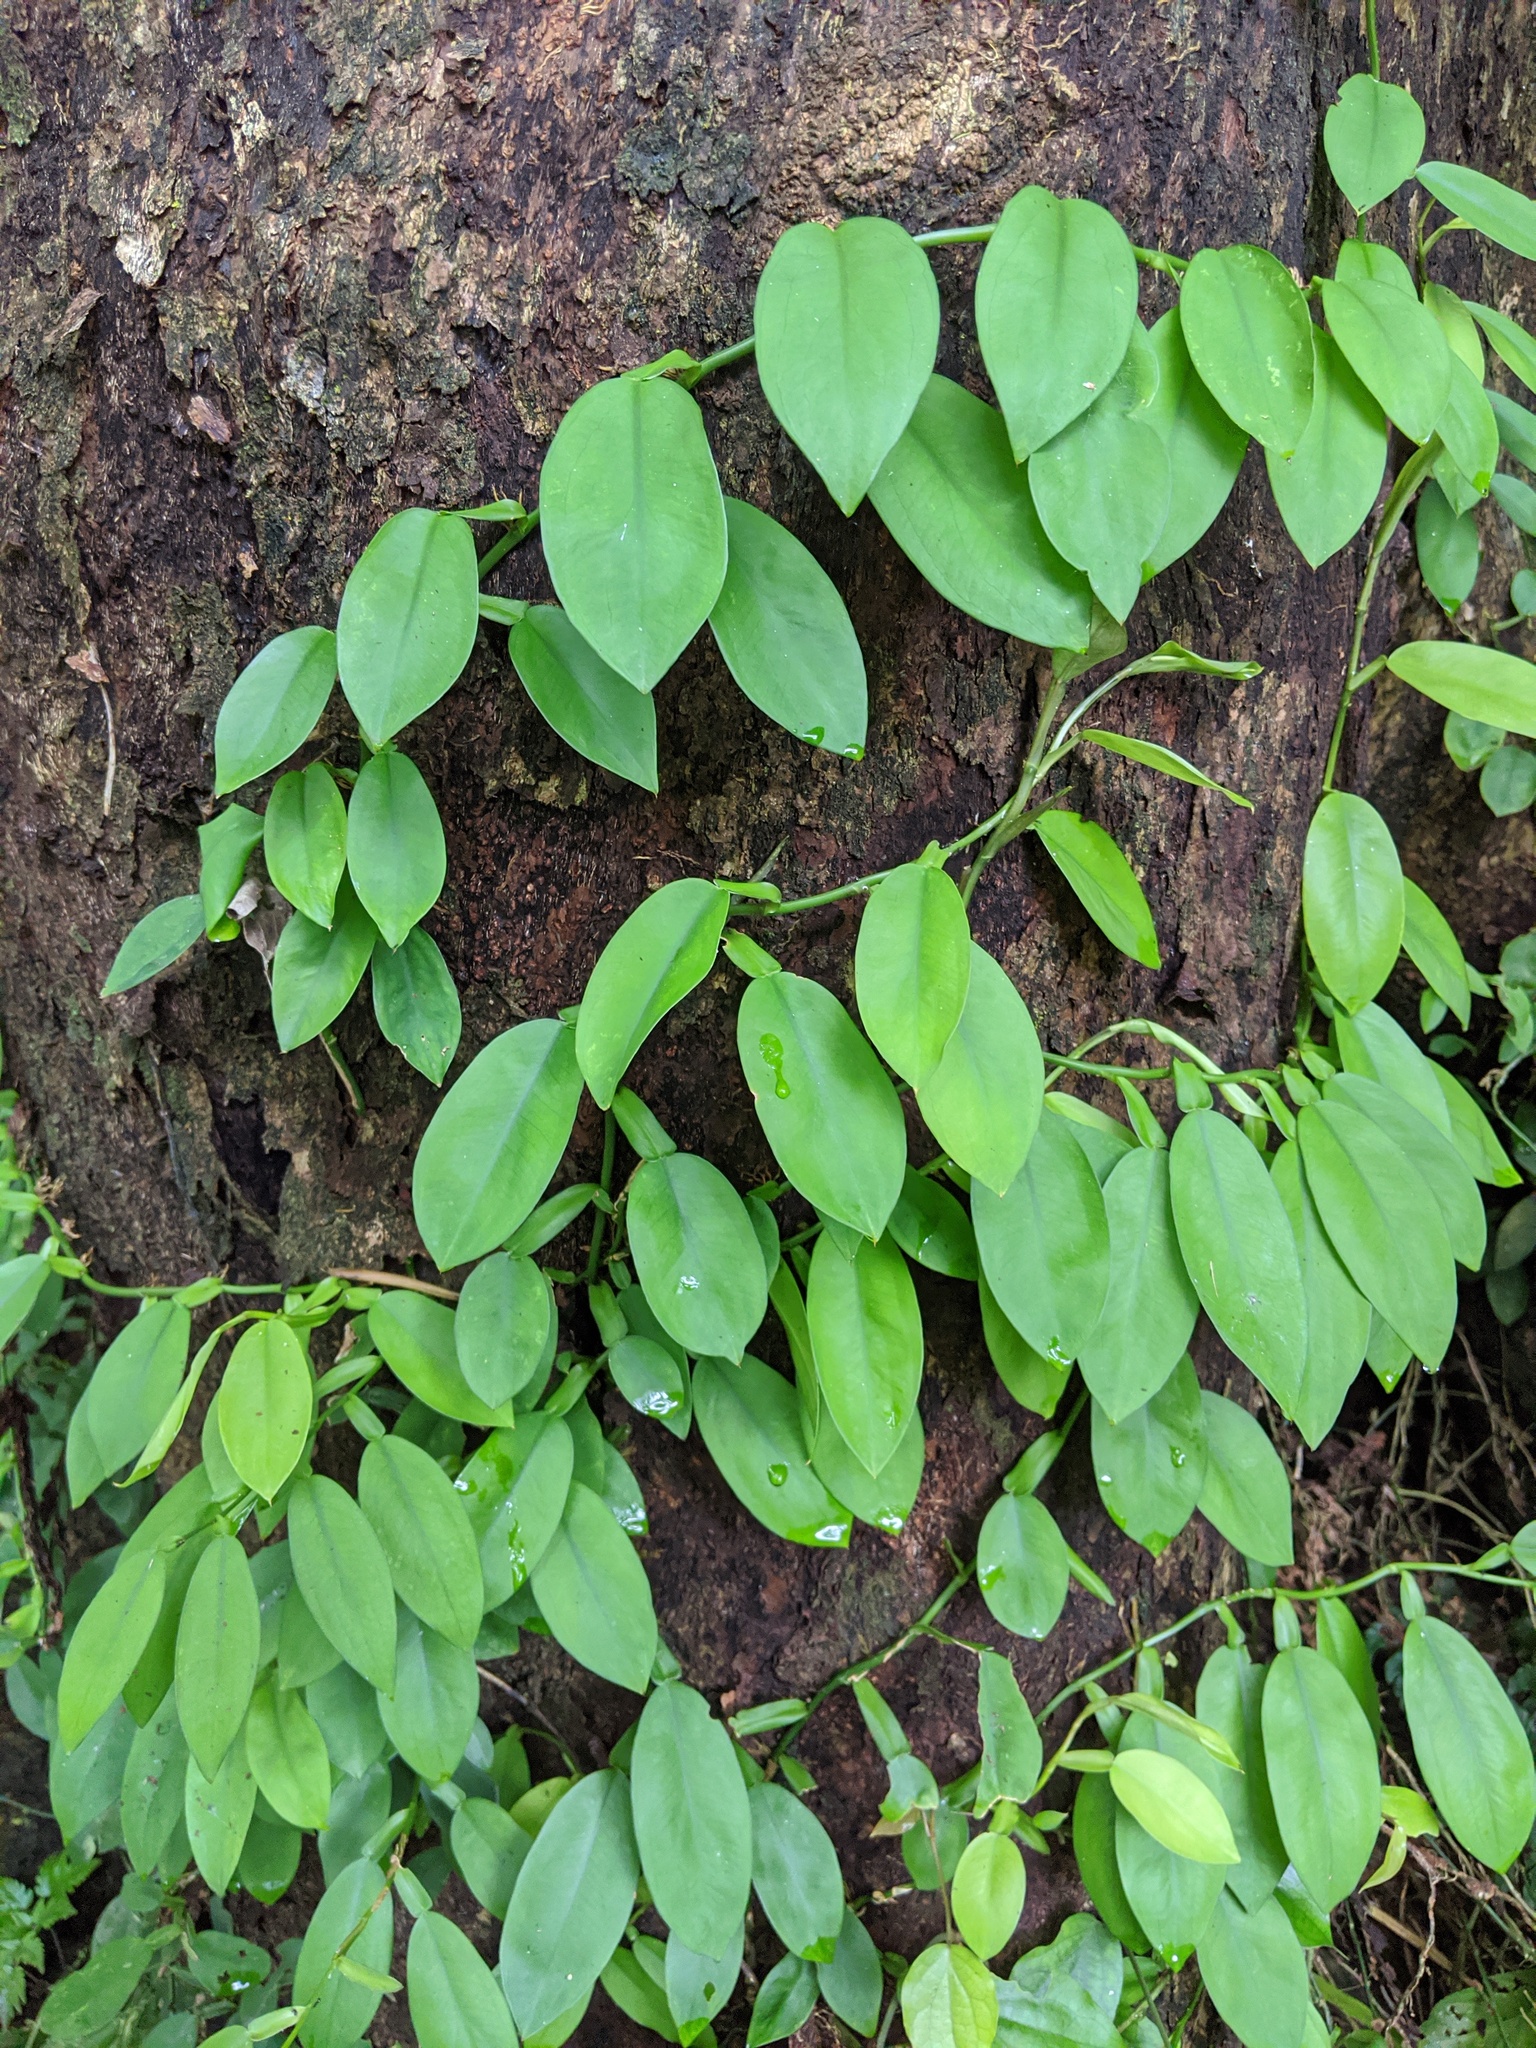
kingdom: Plantae
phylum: Tracheophyta
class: Liliopsida
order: Alismatales
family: Araceae
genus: Pothos
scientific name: Pothos chinensis
